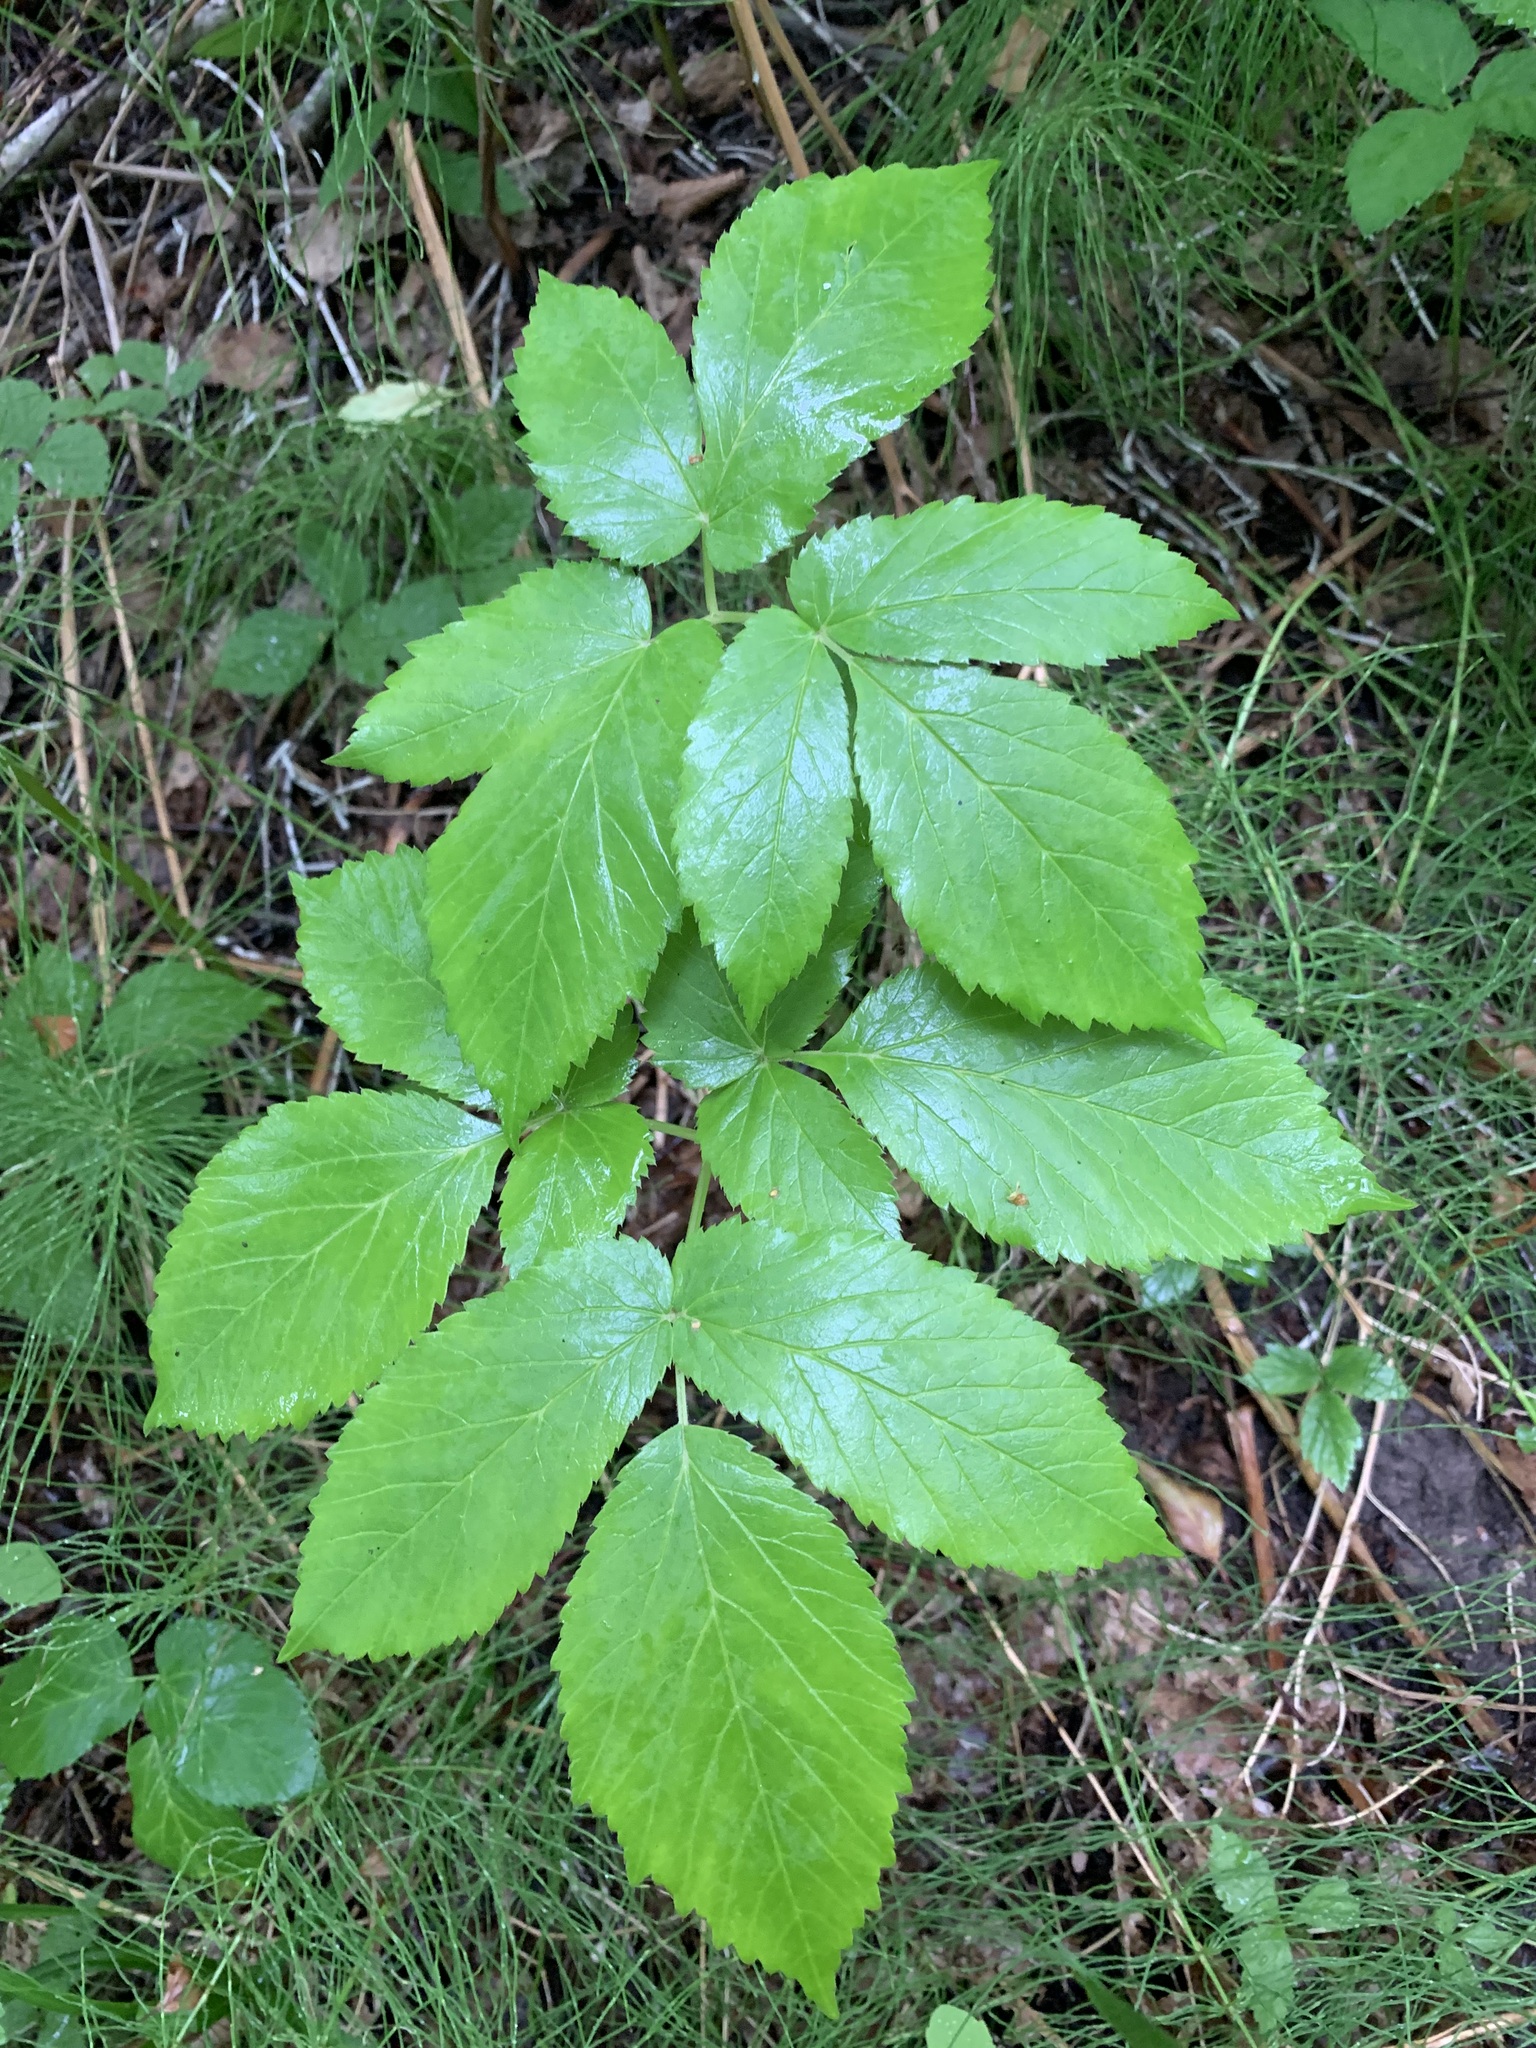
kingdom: Plantae
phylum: Tracheophyta
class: Magnoliopsida
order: Apiales
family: Apiaceae
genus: Aegopodium
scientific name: Aegopodium podagraria
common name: Ground-elder
